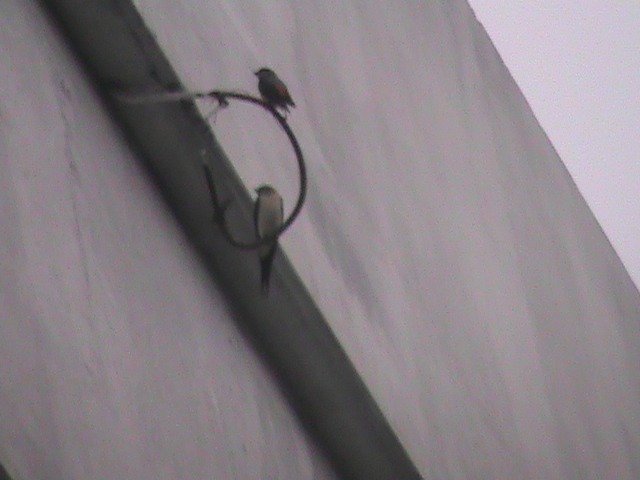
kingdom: Animalia
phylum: Chordata
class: Aves
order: Passeriformes
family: Hirundinidae
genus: Cecropis
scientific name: Cecropis daurica
